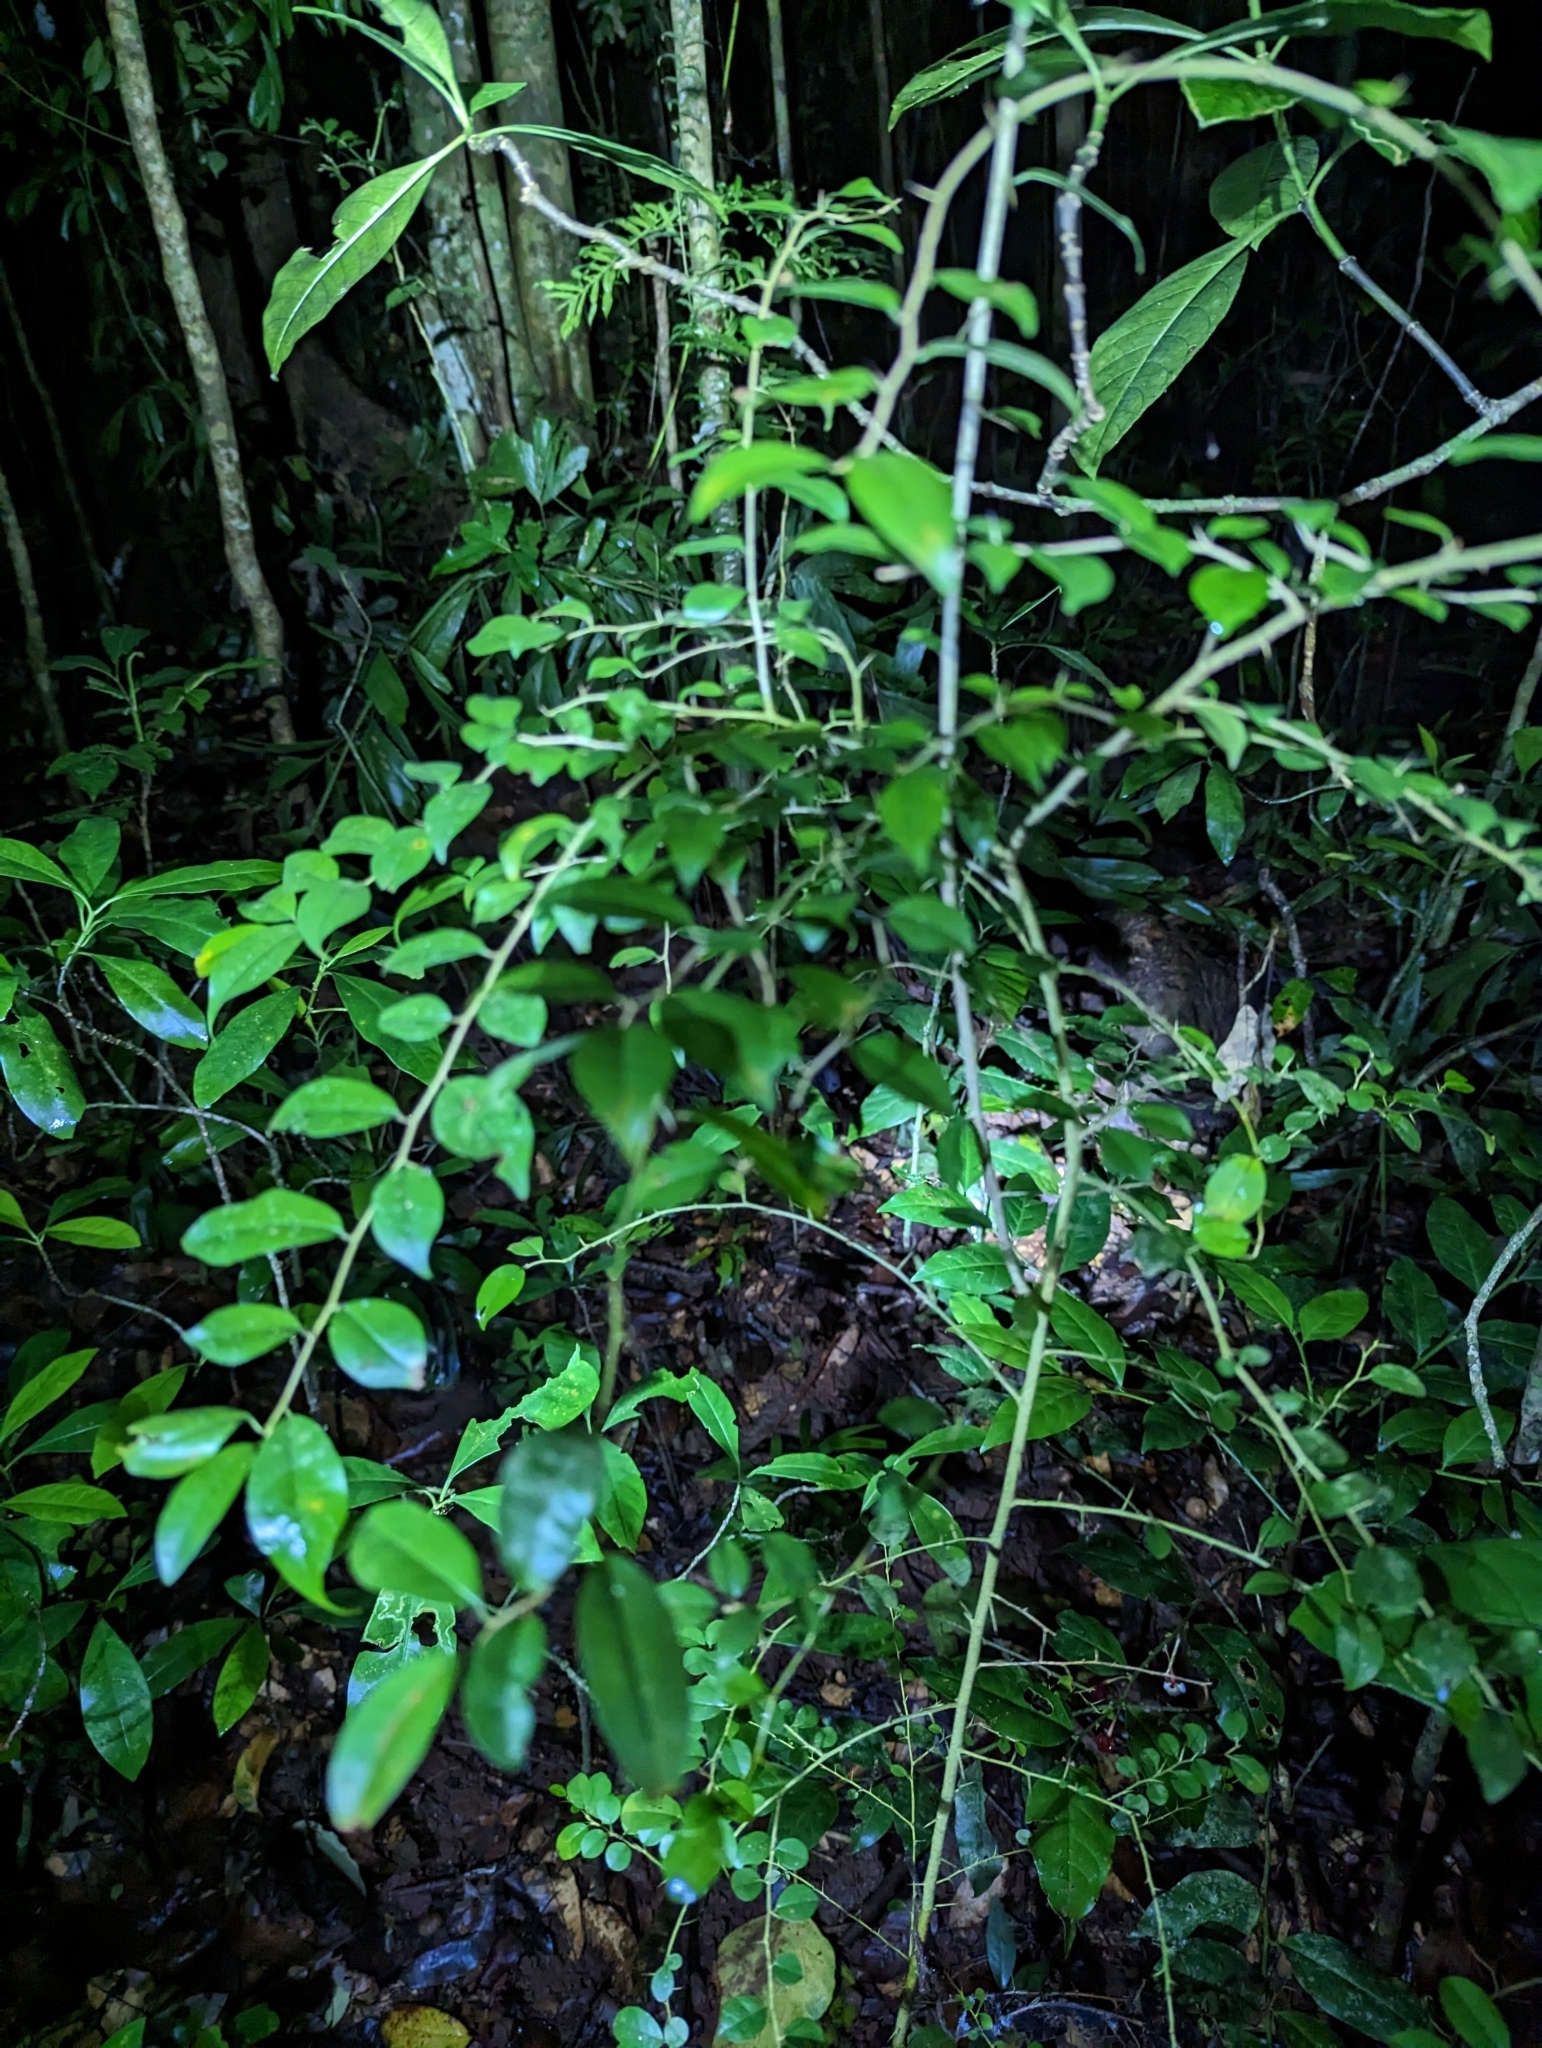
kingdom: Plantae
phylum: Tracheophyta
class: Magnoliopsida
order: Rosales
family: Moraceae
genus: Maclura
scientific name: Maclura cochinchinensis
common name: Cockspurthorn
